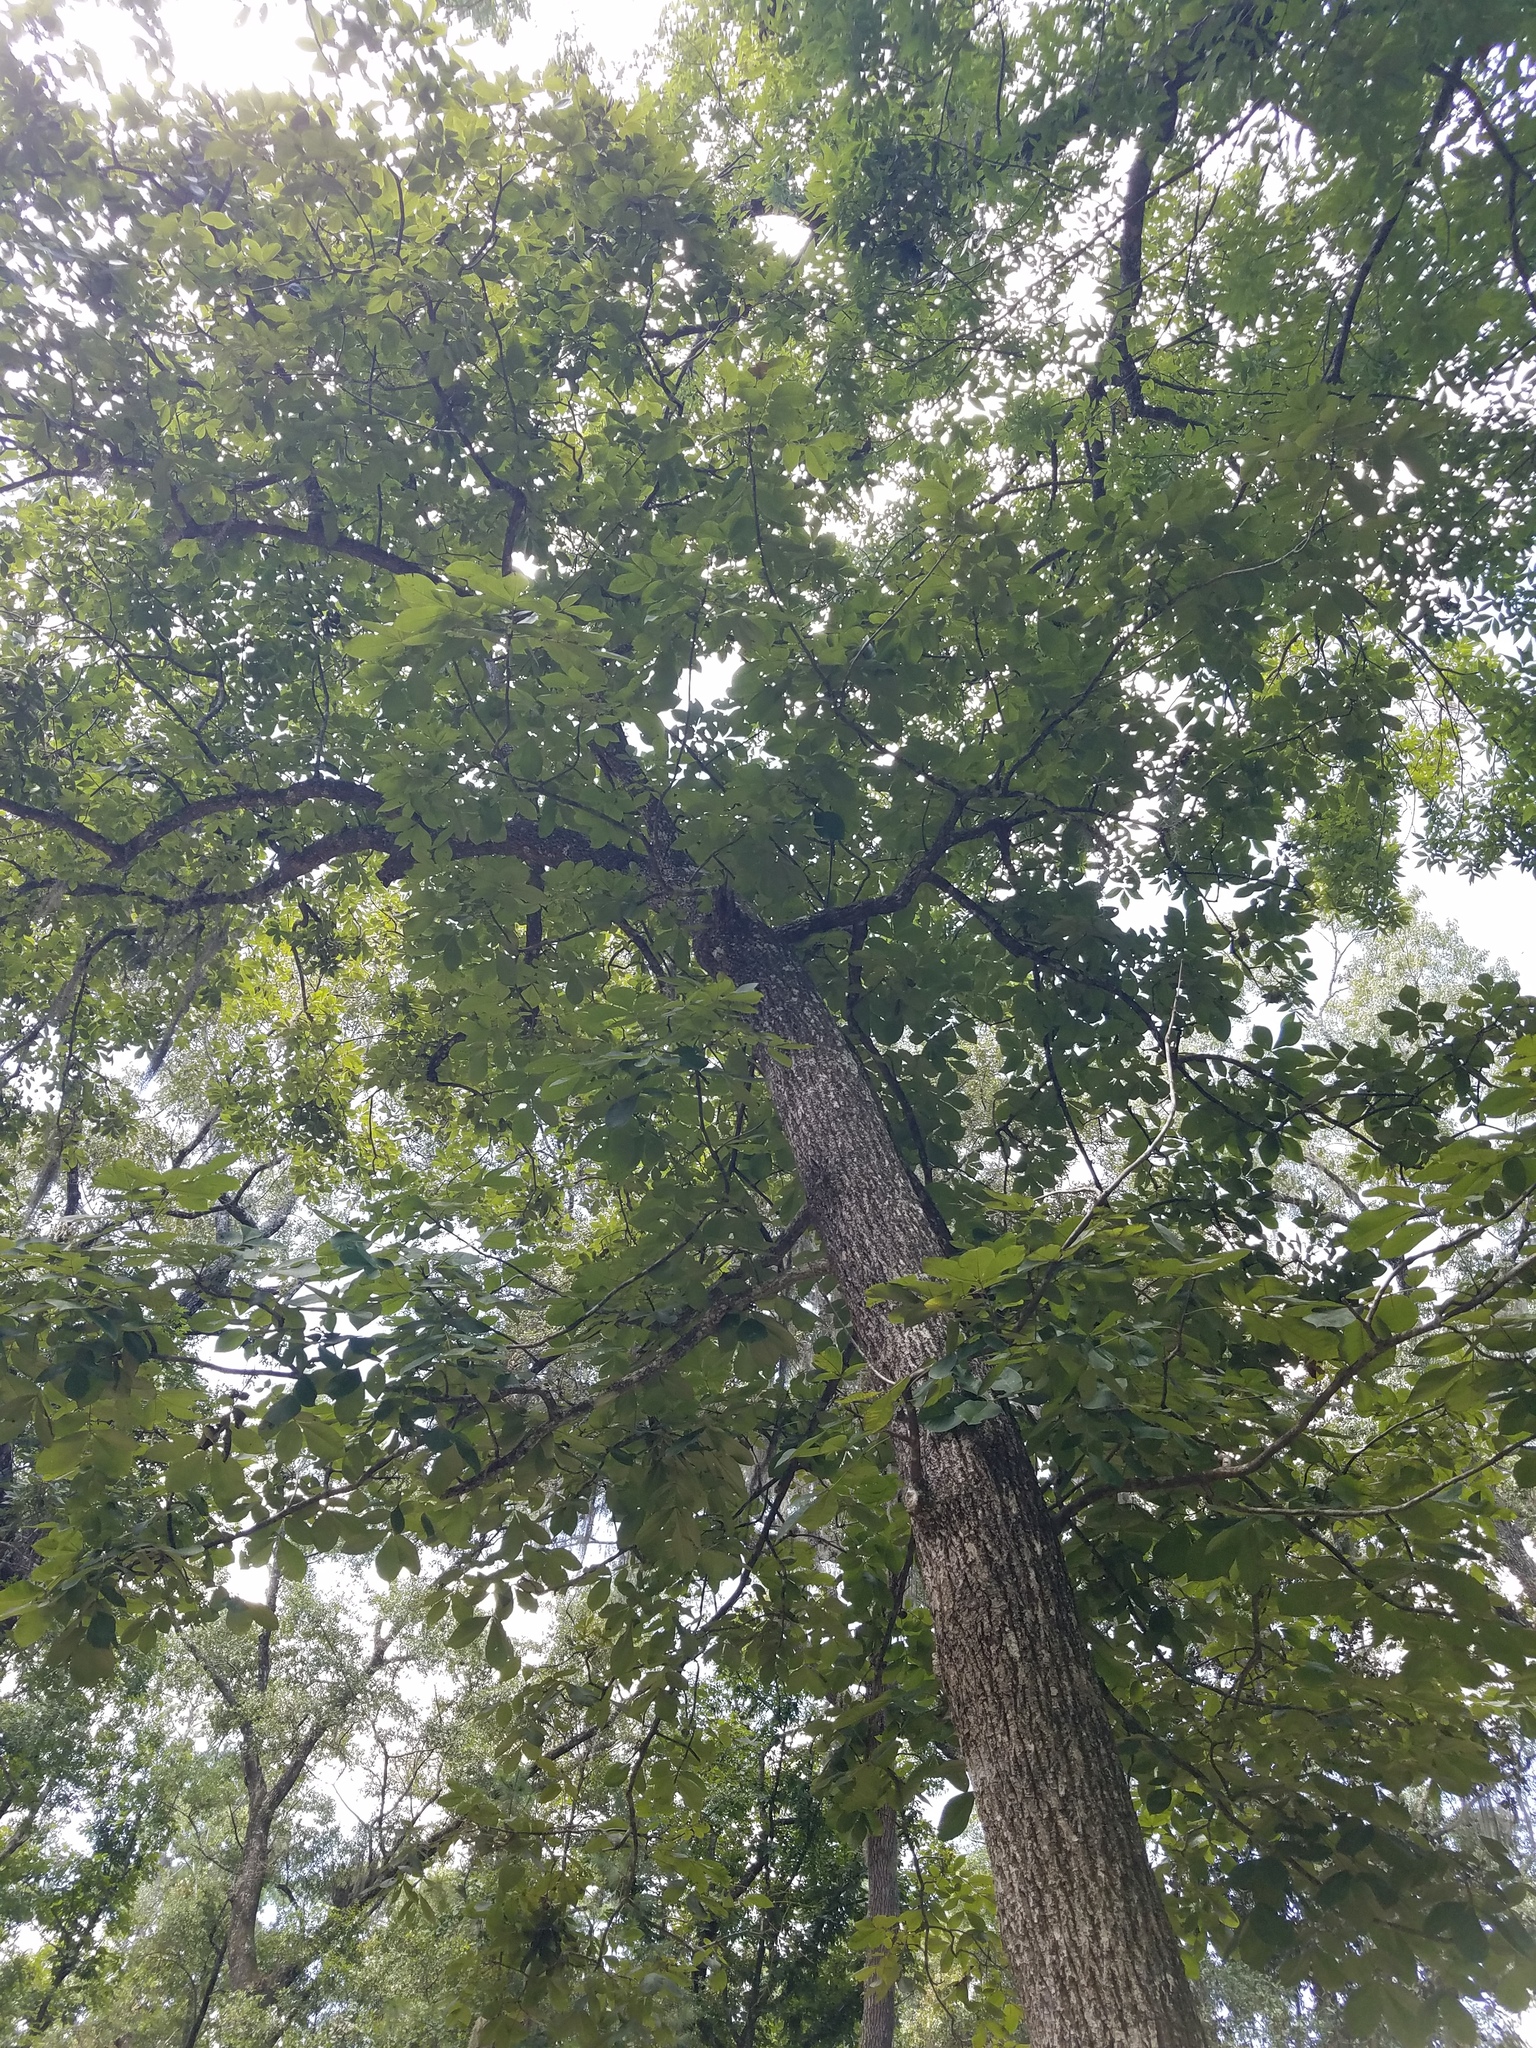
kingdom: Plantae
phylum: Tracheophyta
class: Magnoliopsida
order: Fagales
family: Juglandaceae
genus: Carya
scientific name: Carya alba
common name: Mockernut hickory
